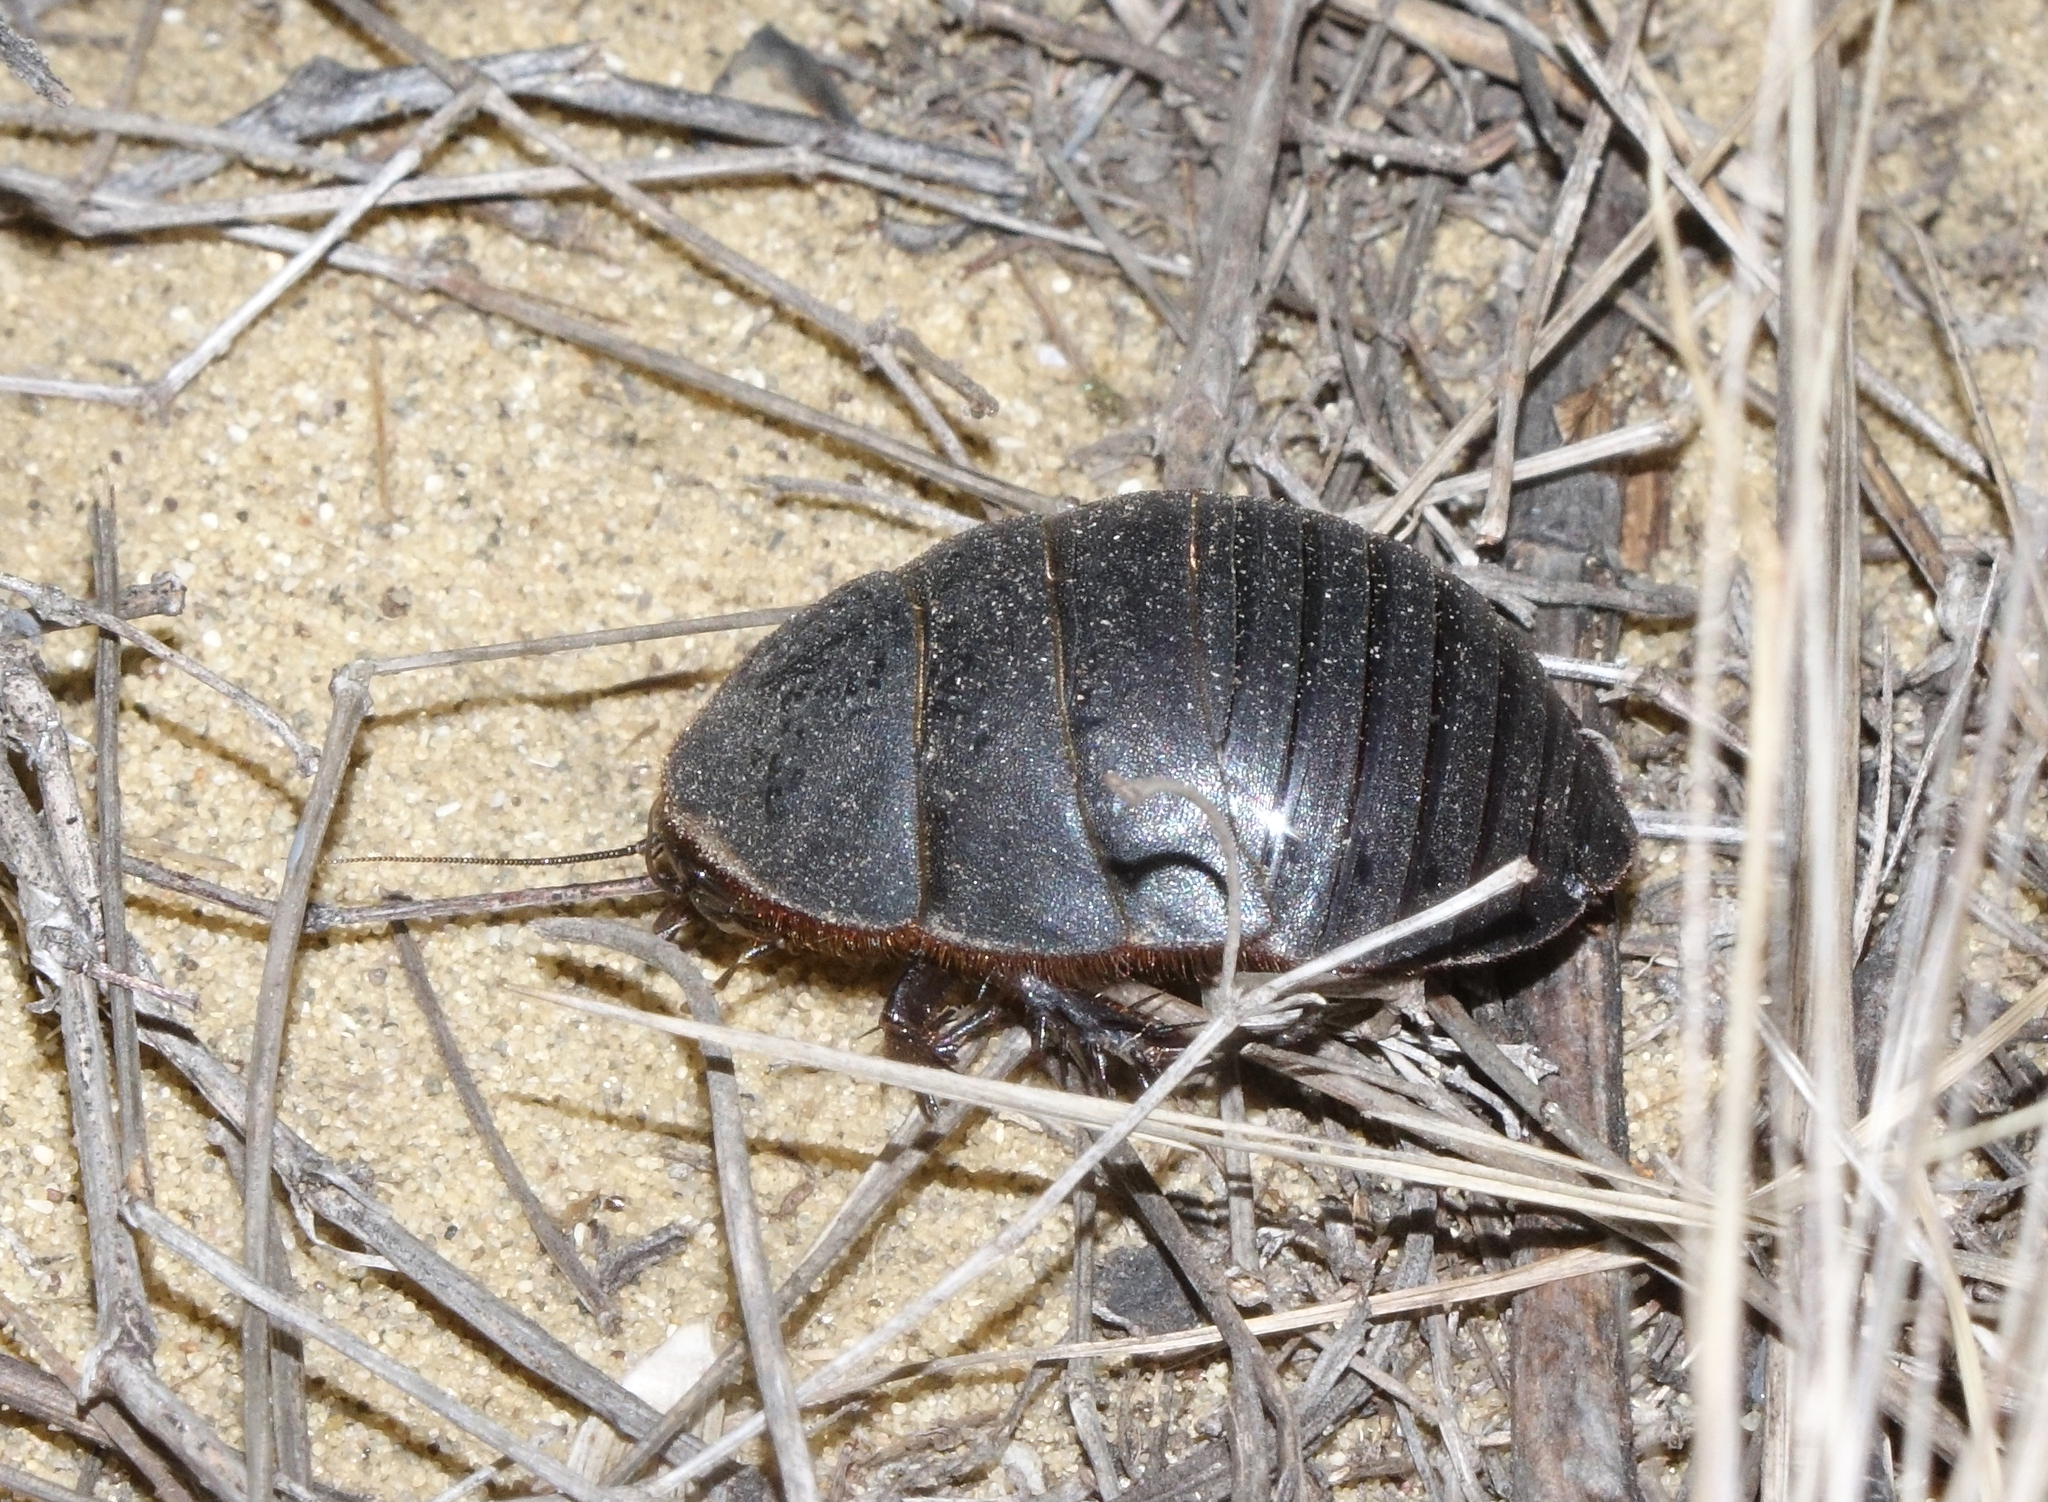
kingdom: Animalia
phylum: Arthropoda
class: Insecta
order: Blattodea
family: Corydiidae
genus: Polyphaga
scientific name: Polyphaga aegyptiaca
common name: Egyptian cockroach
